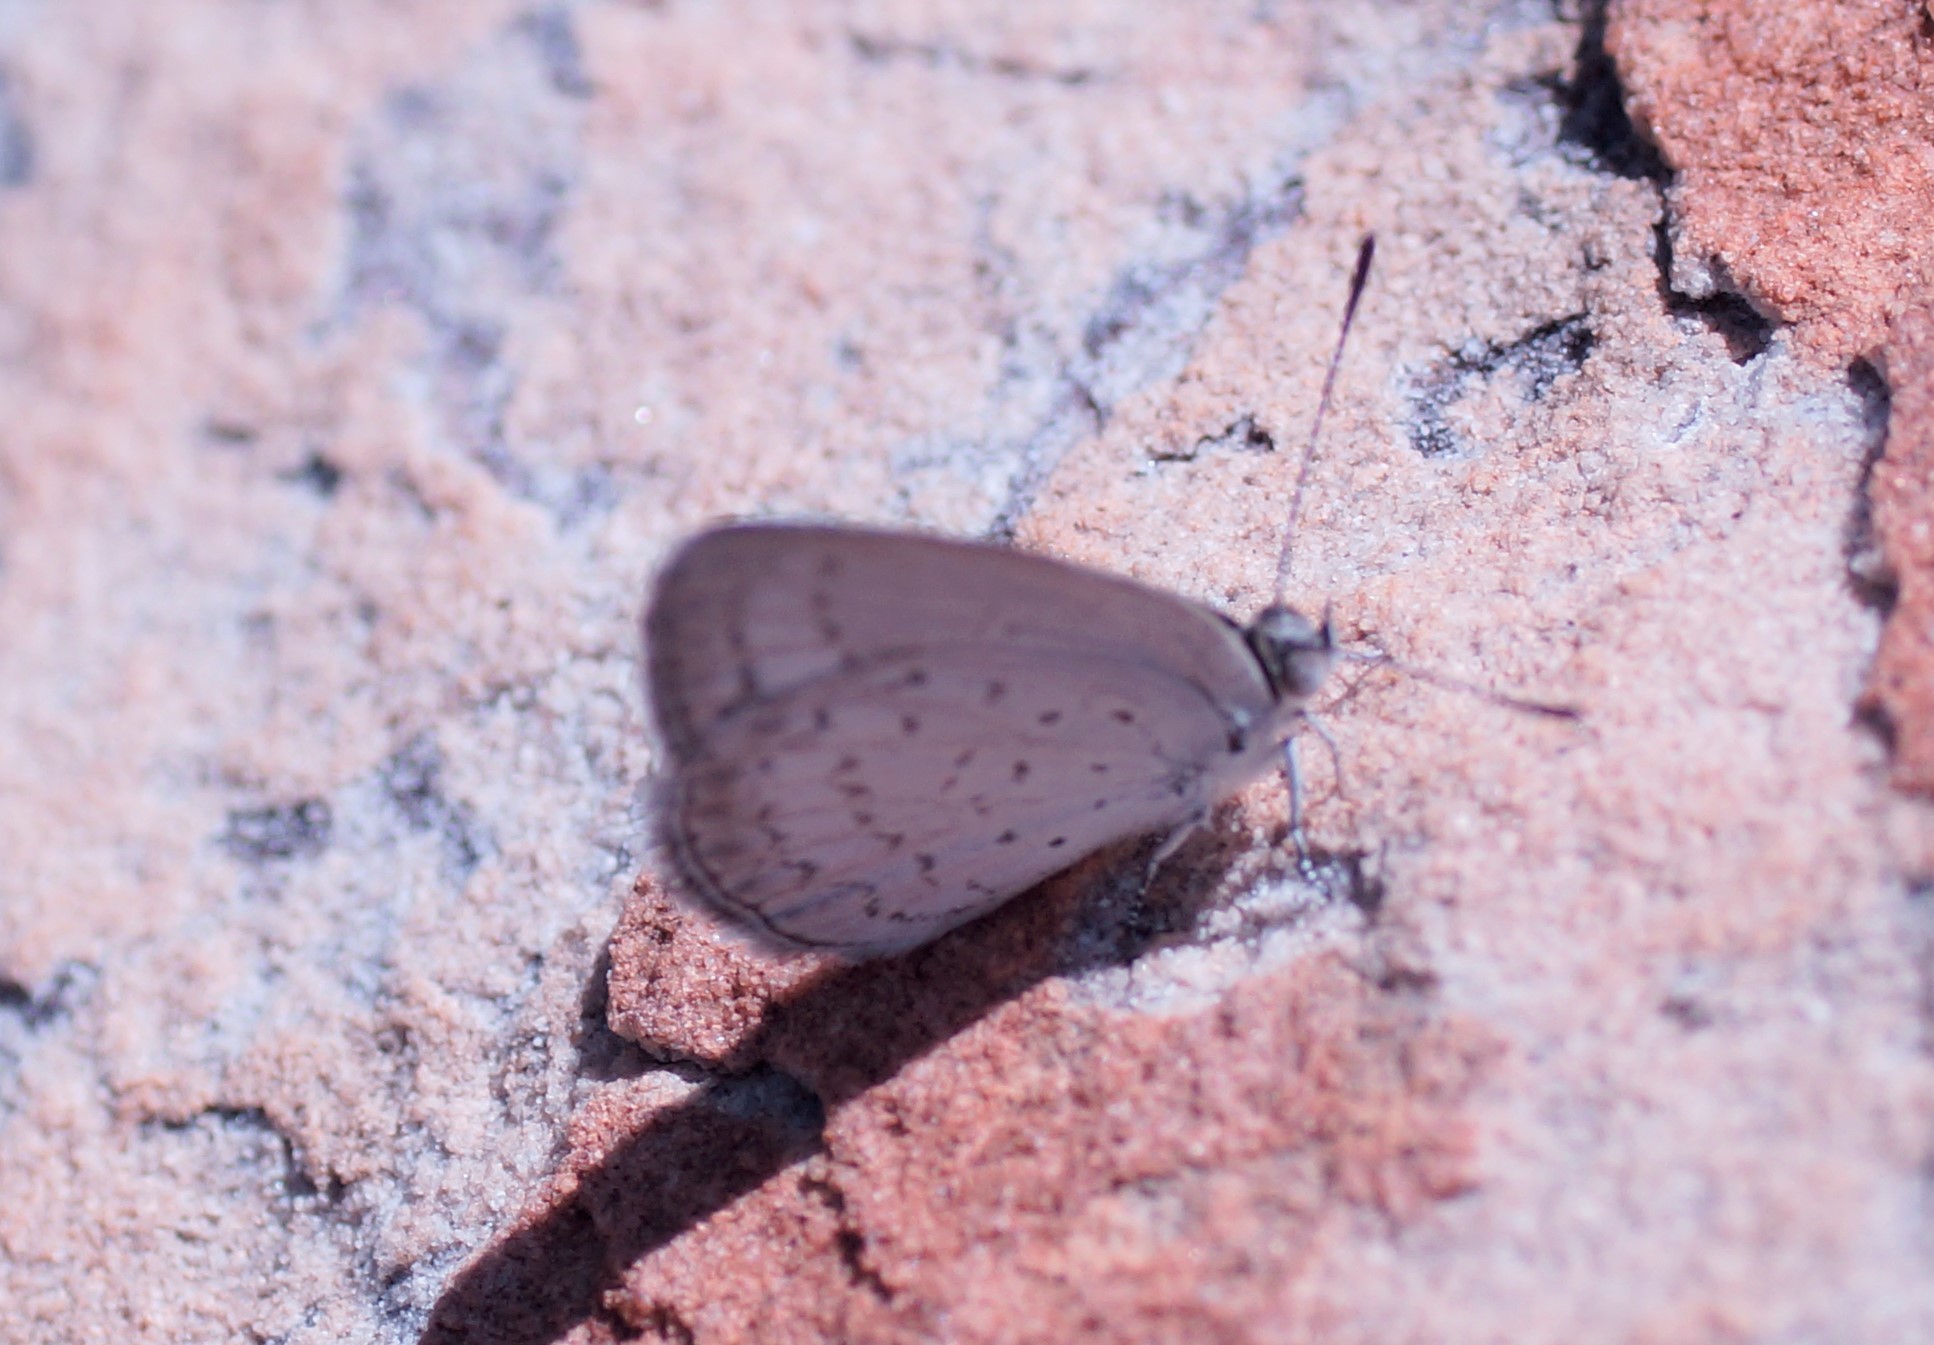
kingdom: Animalia
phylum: Arthropoda
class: Insecta
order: Lepidoptera
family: Lycaenidae
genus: Candalides
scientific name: Candalides
